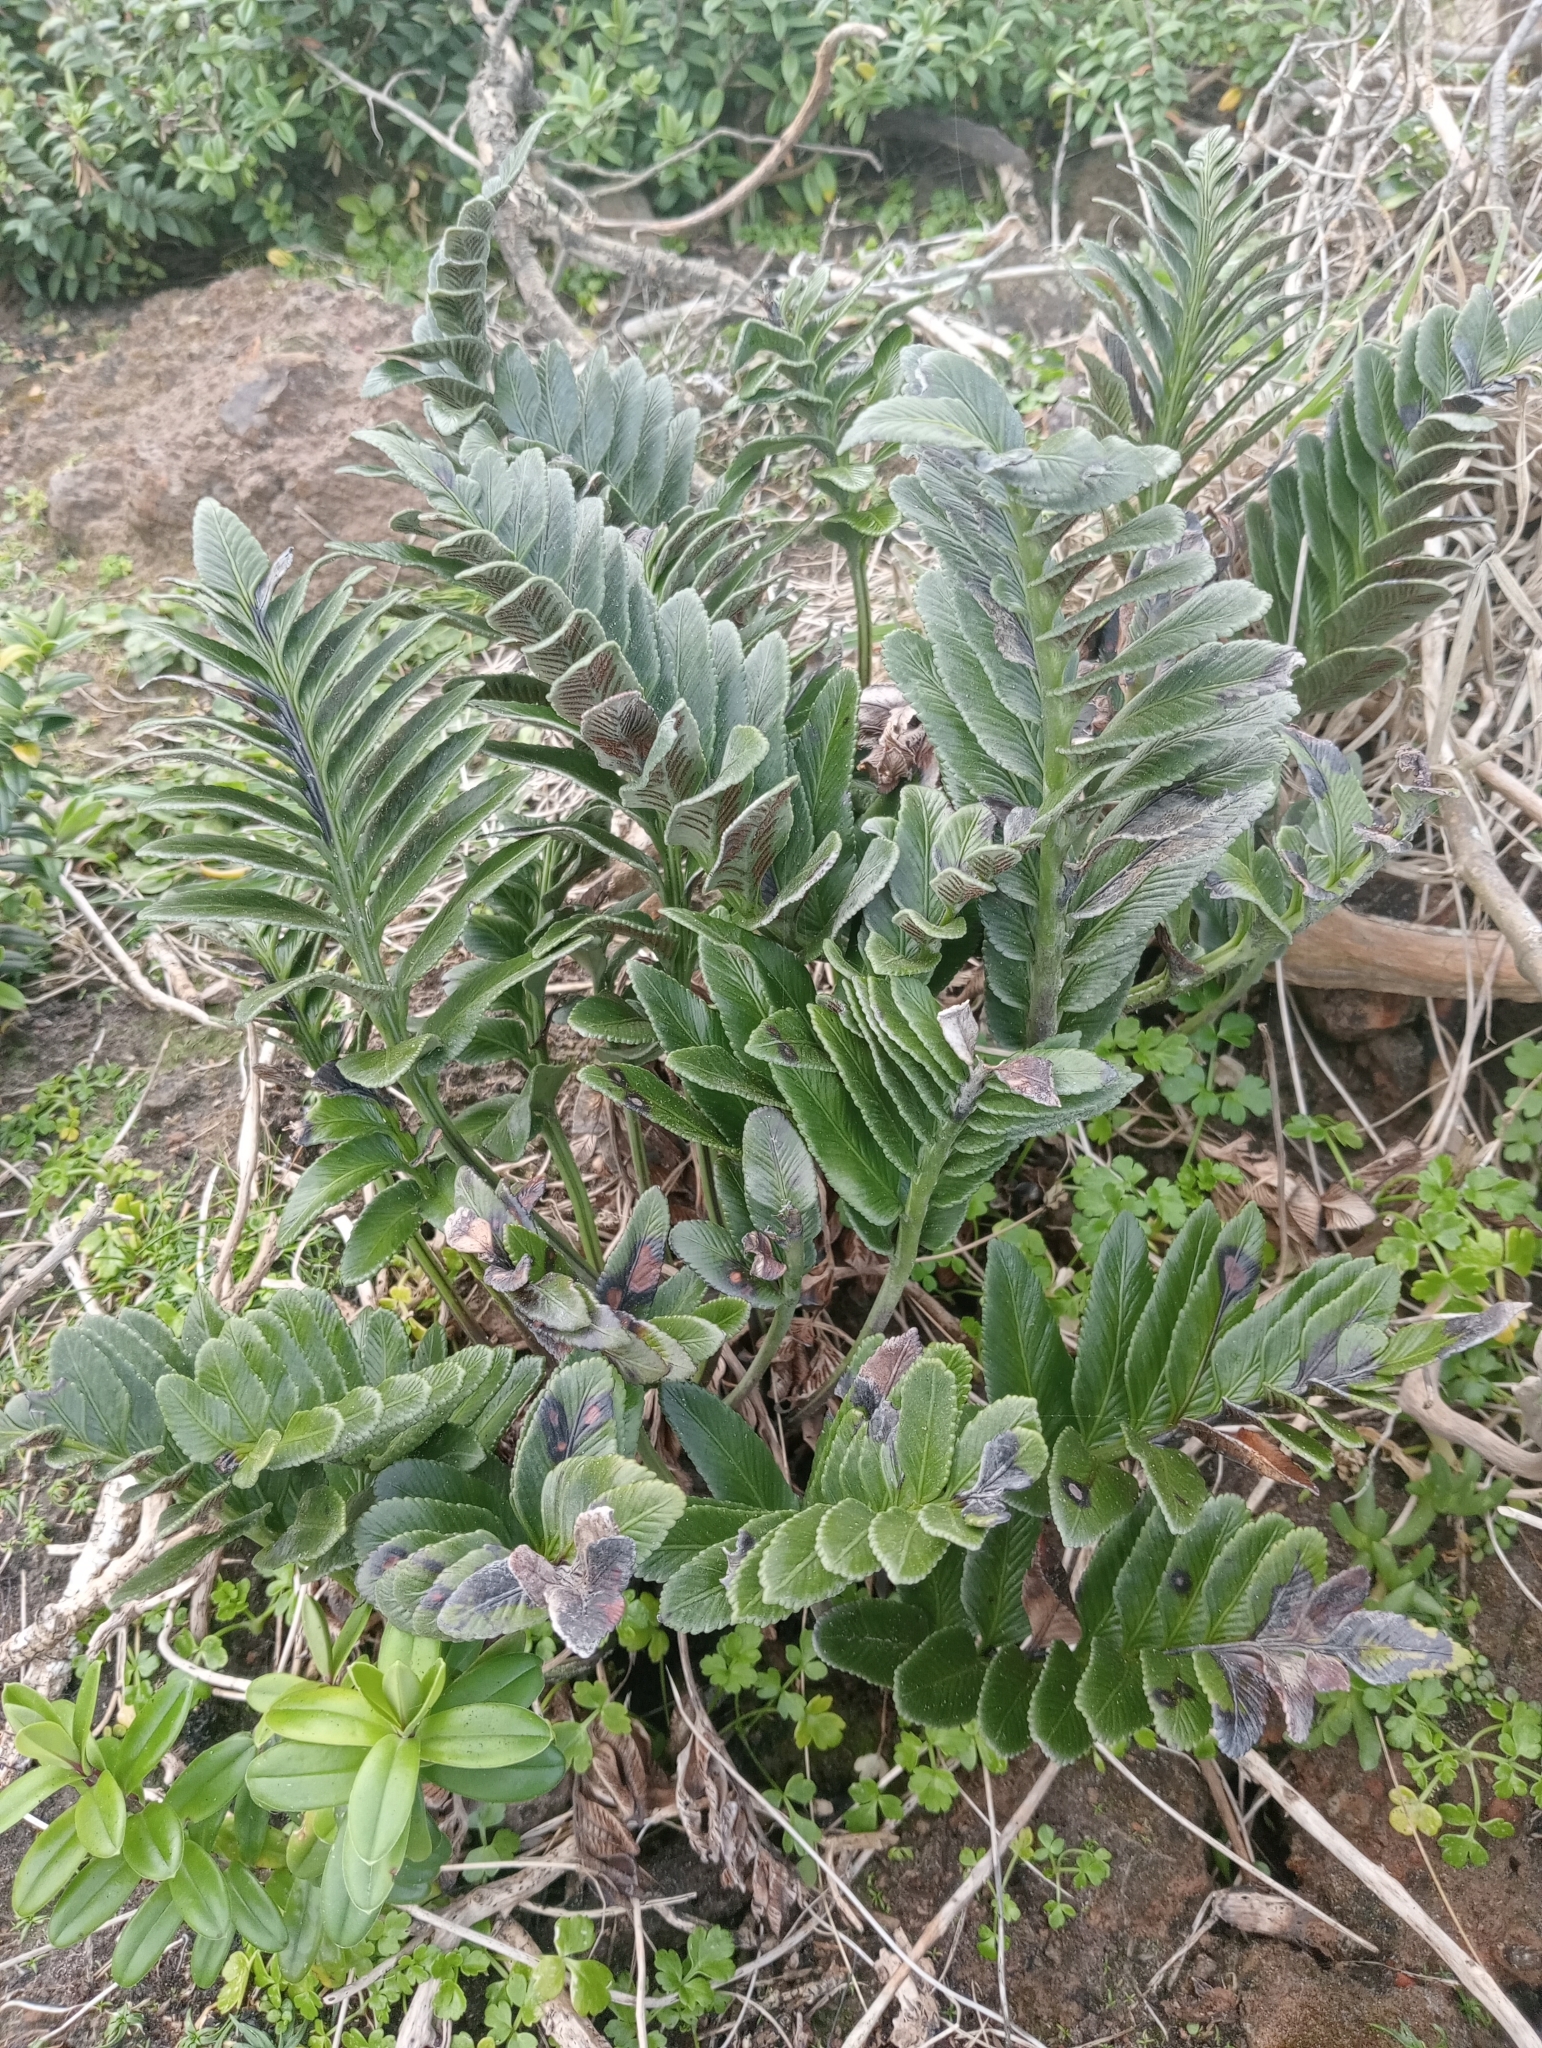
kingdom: Plantae
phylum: Tracheophyta
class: Polypodiopsida
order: Polypodiales
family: Aspleniaceae
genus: Asplenium
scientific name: Asplenium obtusatum
